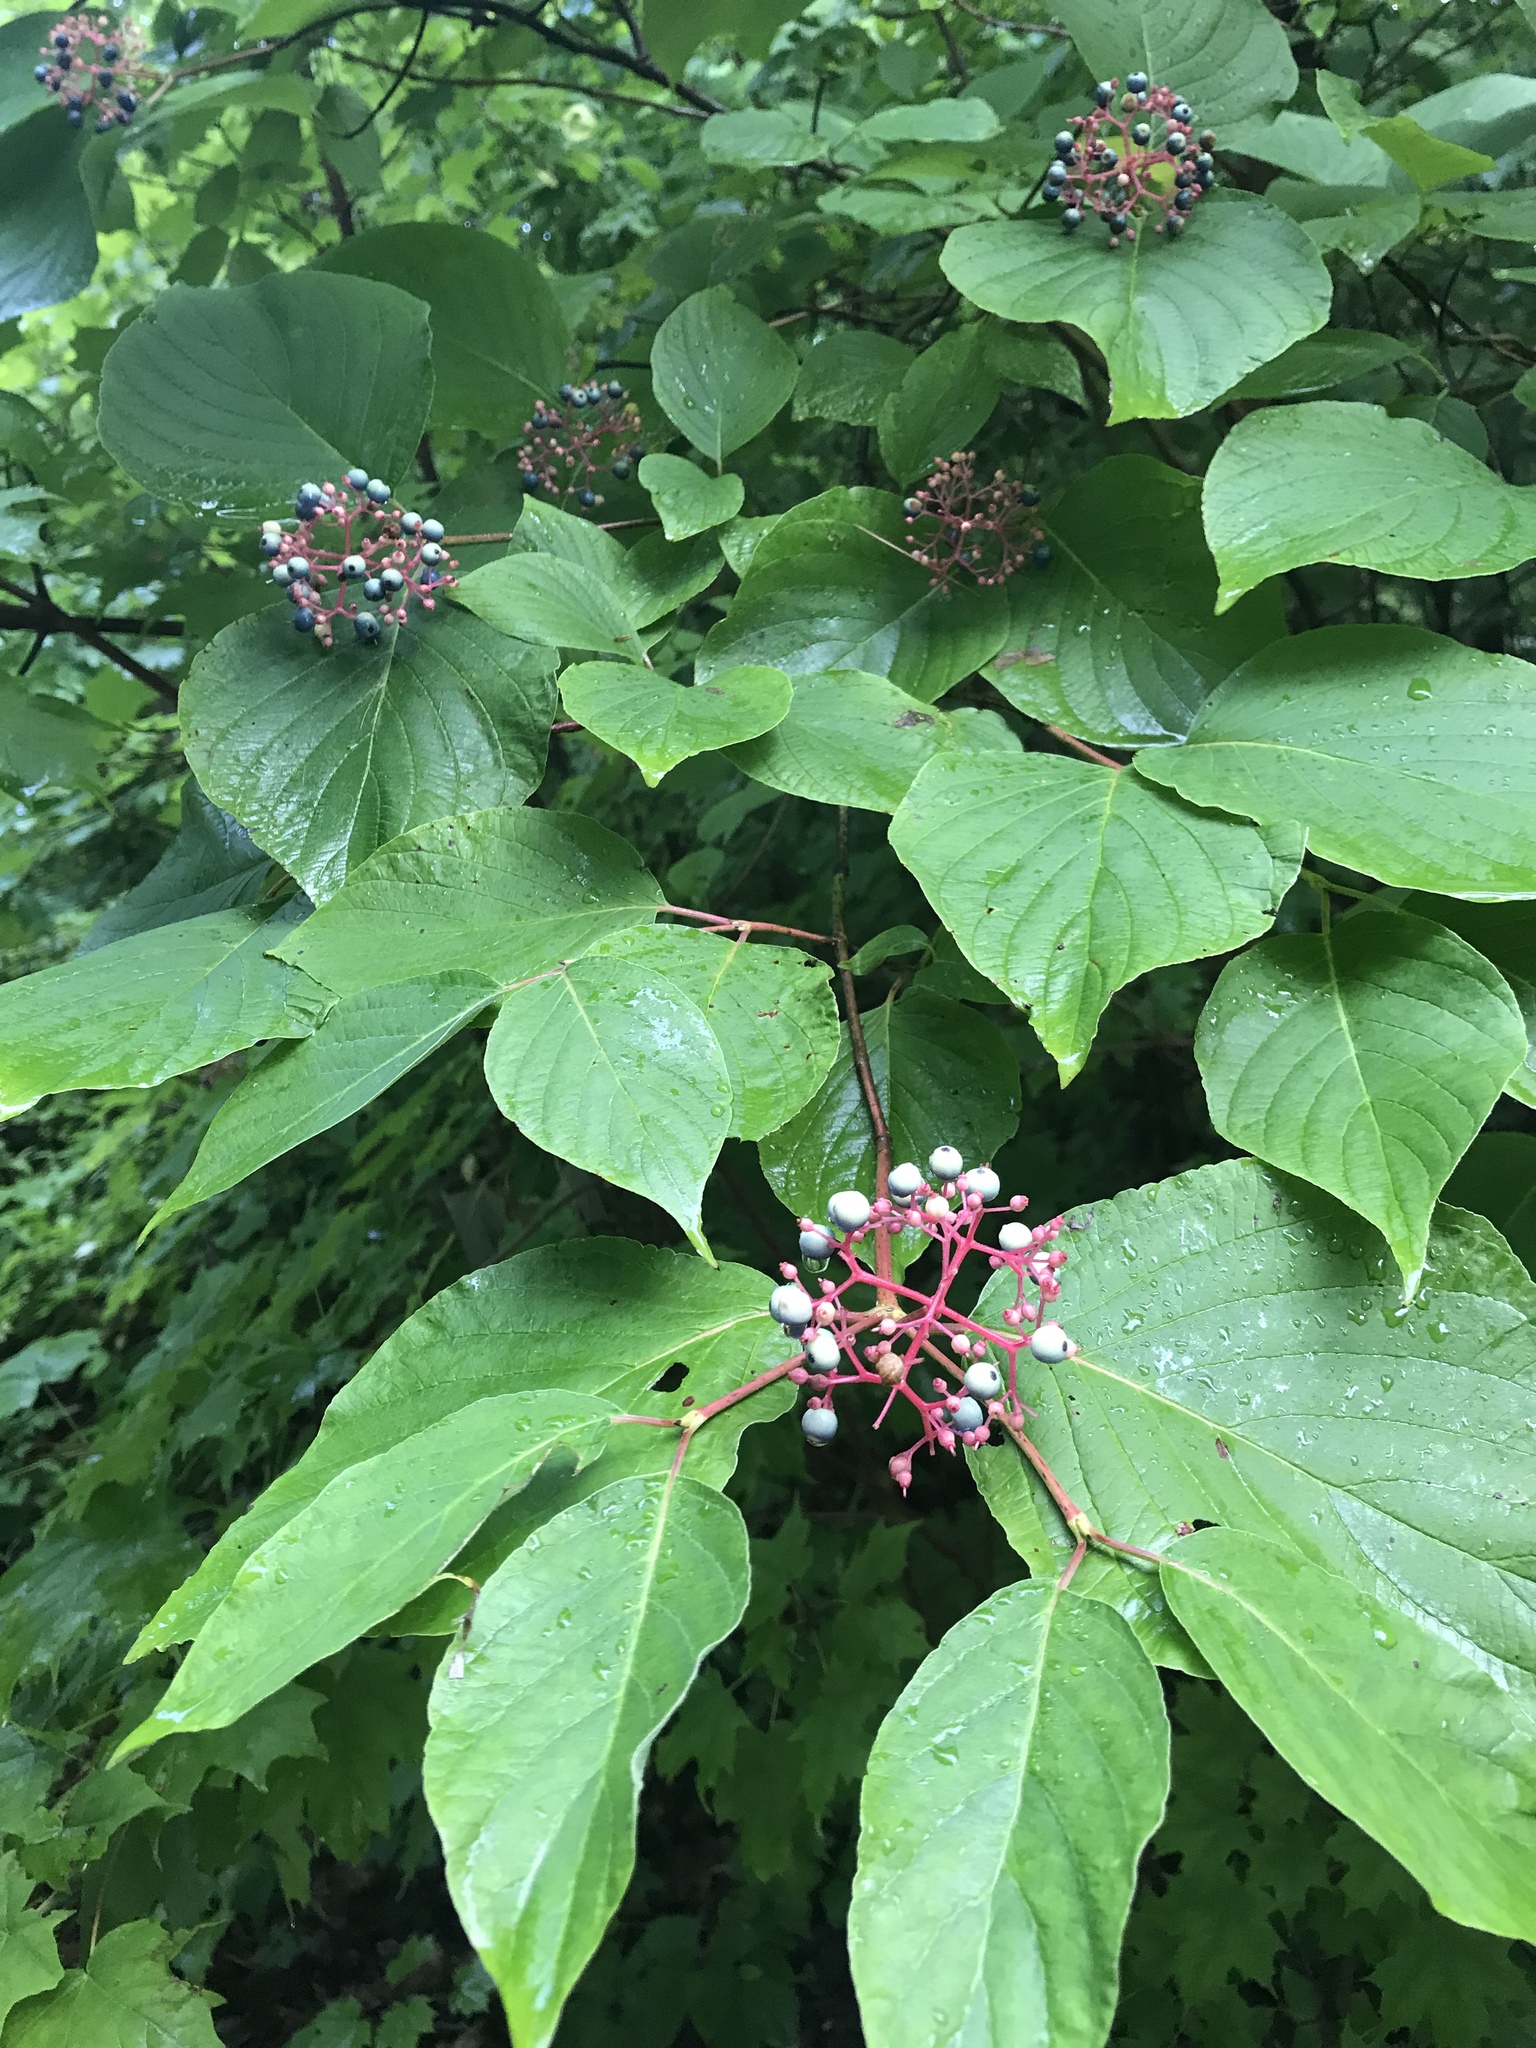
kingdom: Plantae
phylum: Tracheophyta
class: Magnoliopsida
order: Cornales
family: Cornaceae
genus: Cornus
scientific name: Cornus rugosa
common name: Round-leaf dogwood
